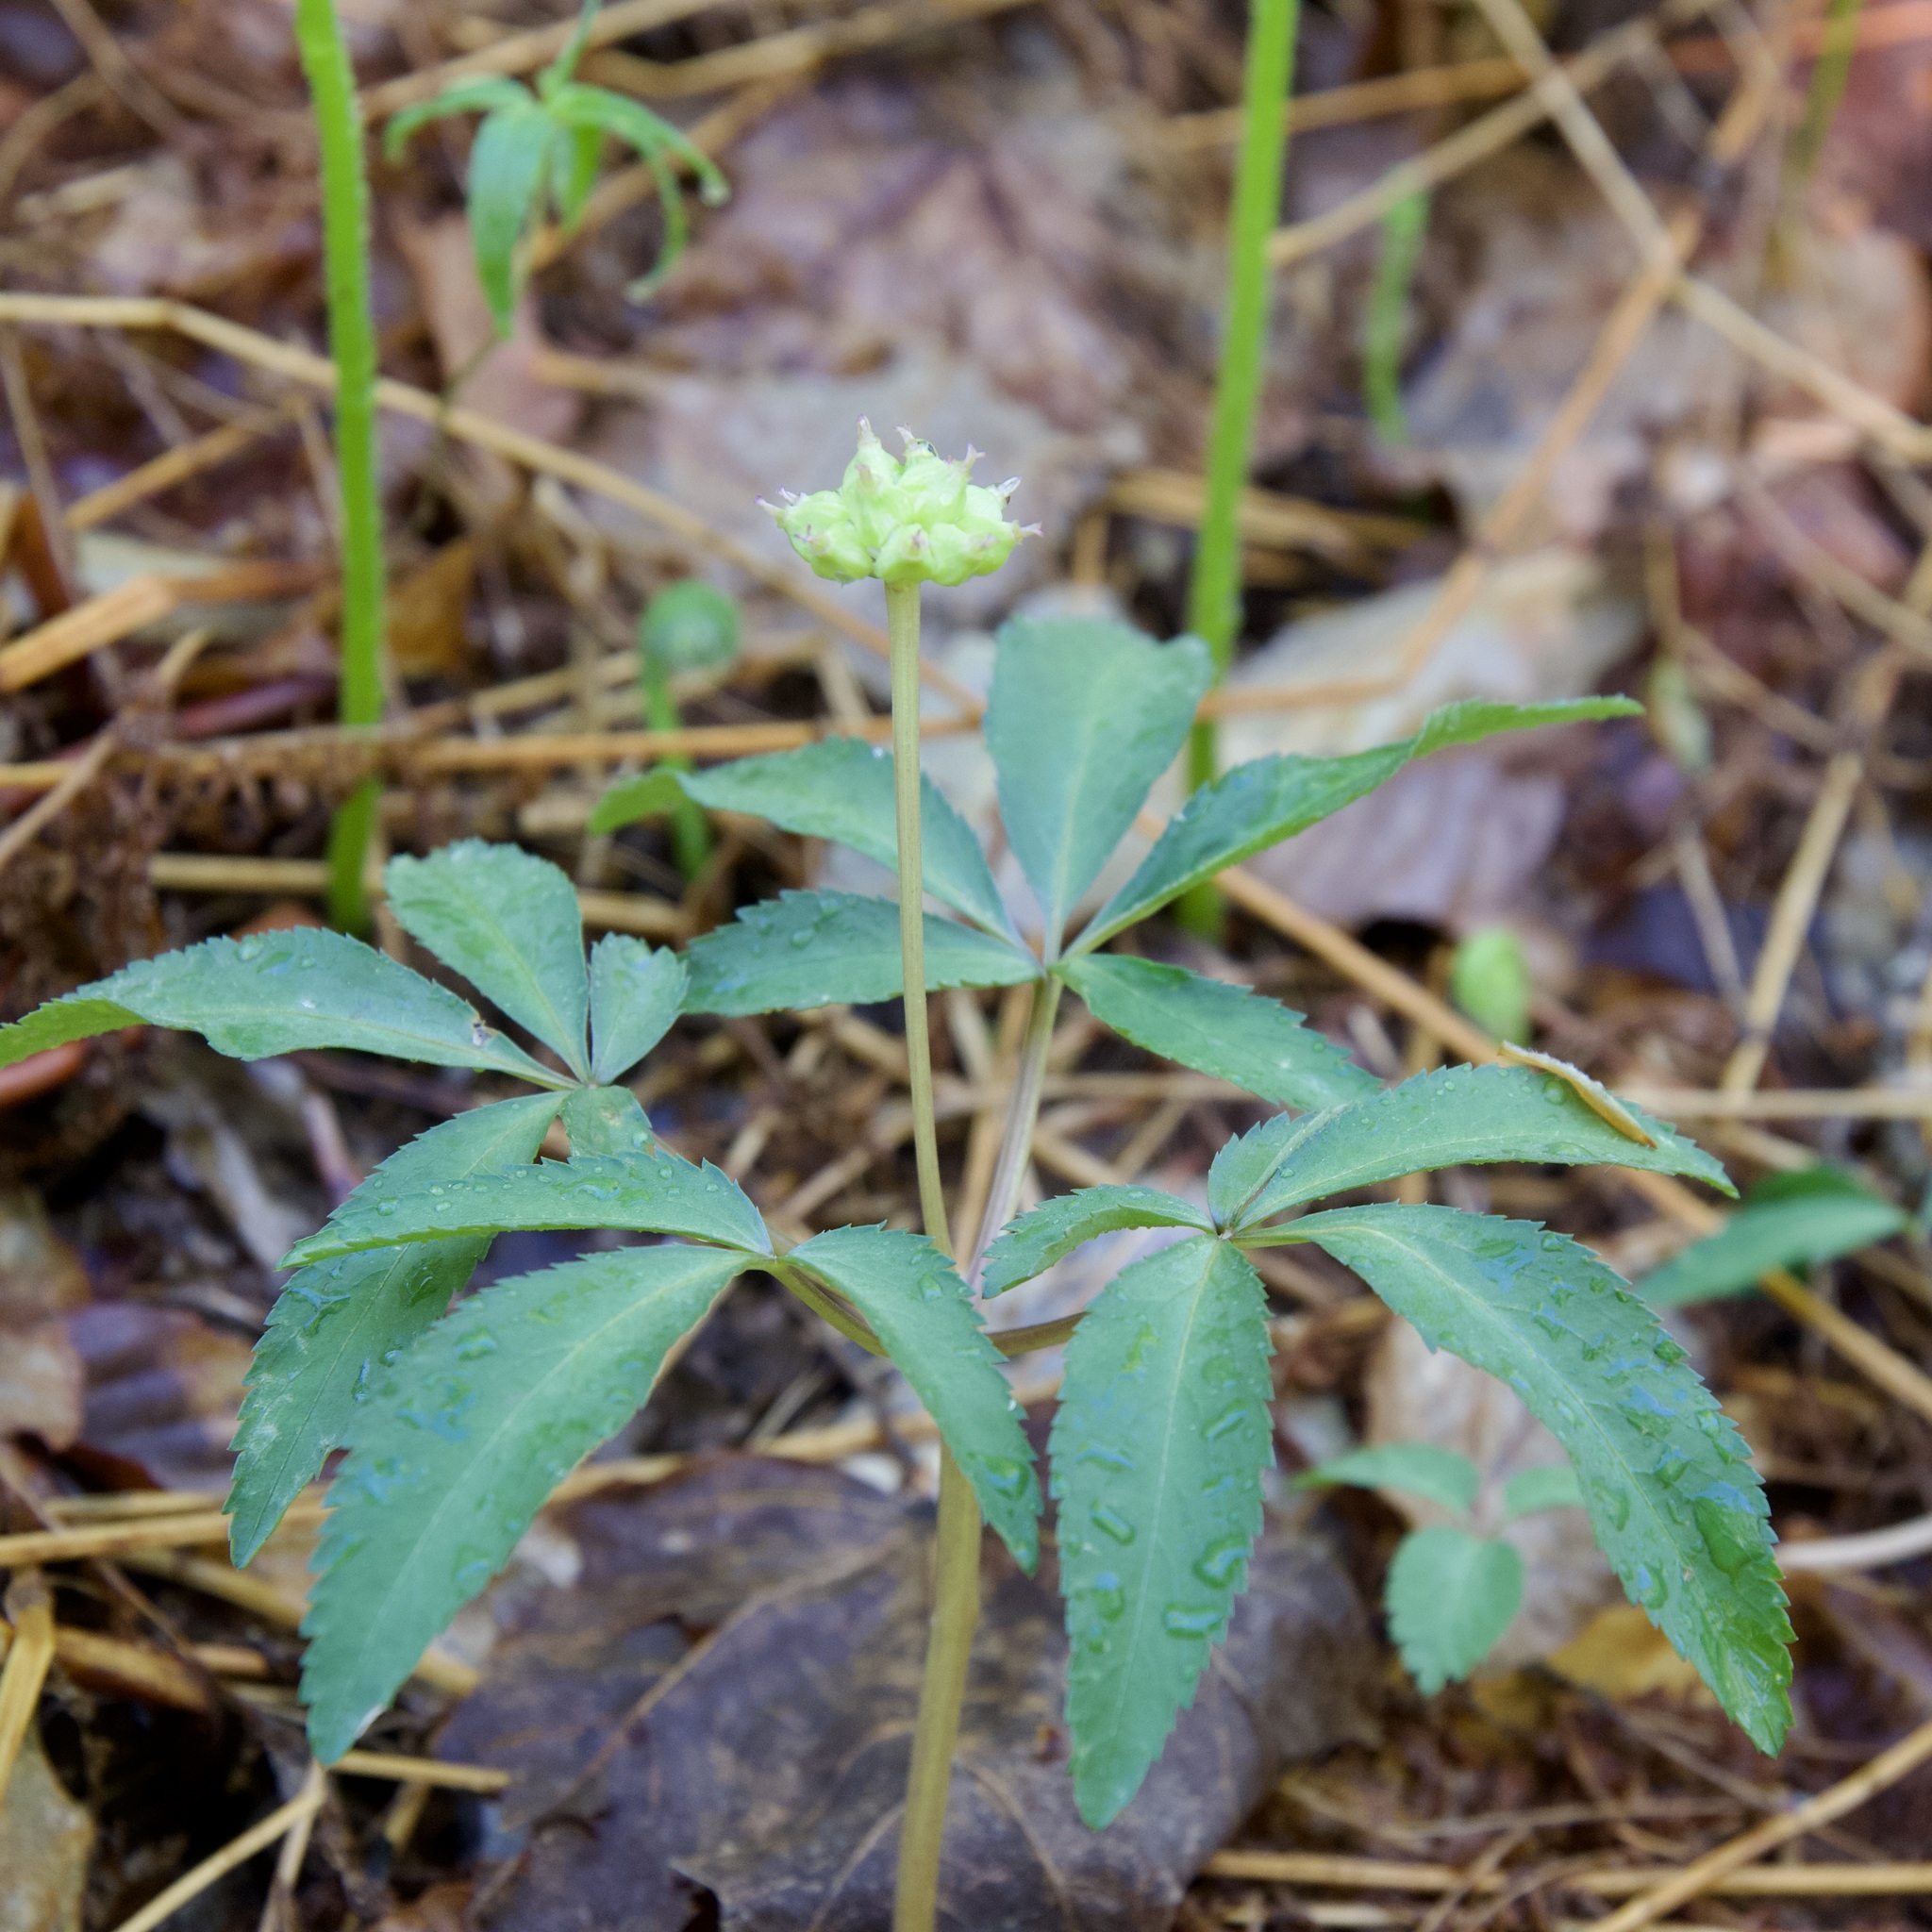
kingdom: Plantae
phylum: Tracheophyta
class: Magnoliopsida
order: Apiales
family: Araliaceae
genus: Panax
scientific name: Panax trifolius
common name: Dwarf ginseng
